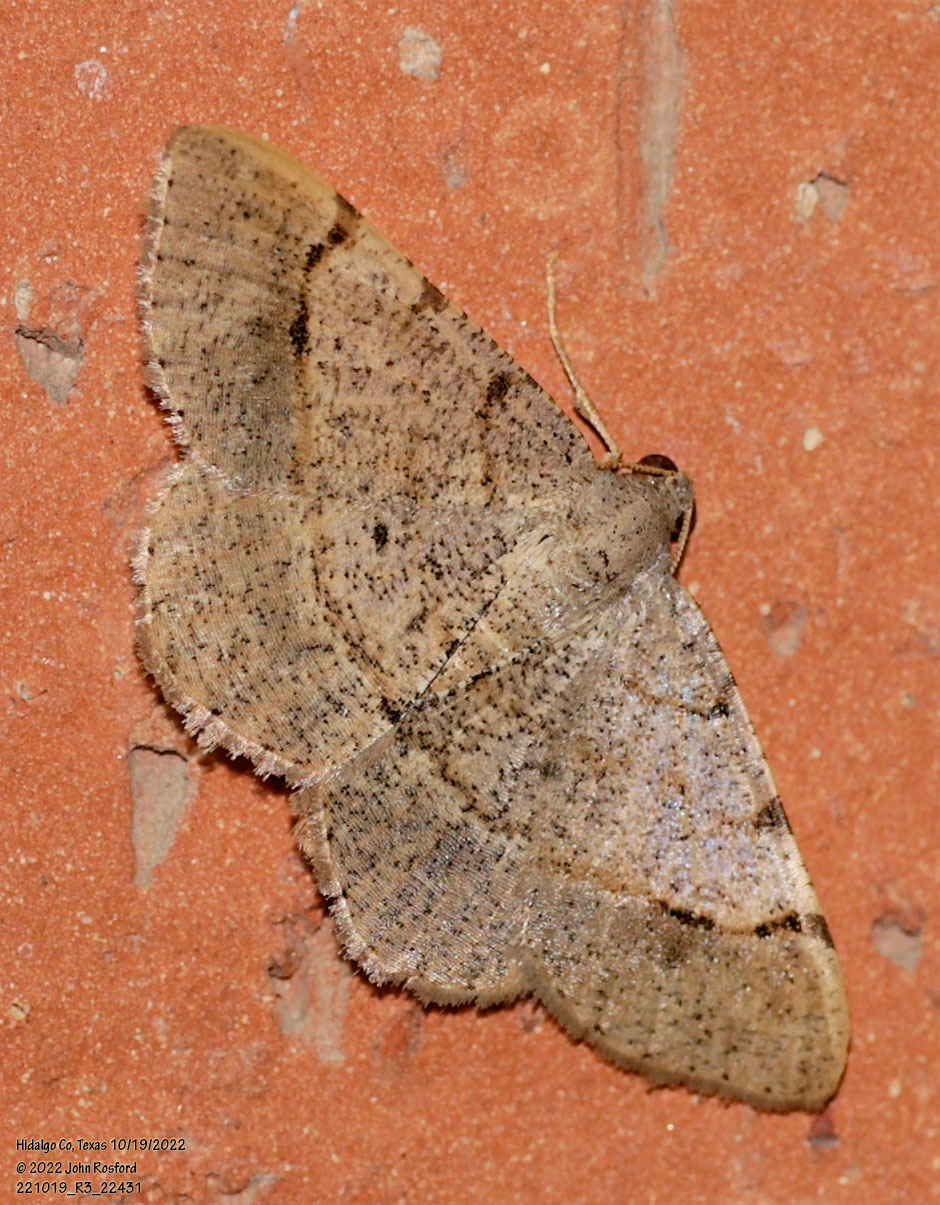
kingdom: Animalia
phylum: Arthropoda
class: Insecta
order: Lepidoptera
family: Geometridae
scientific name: Geometridae
